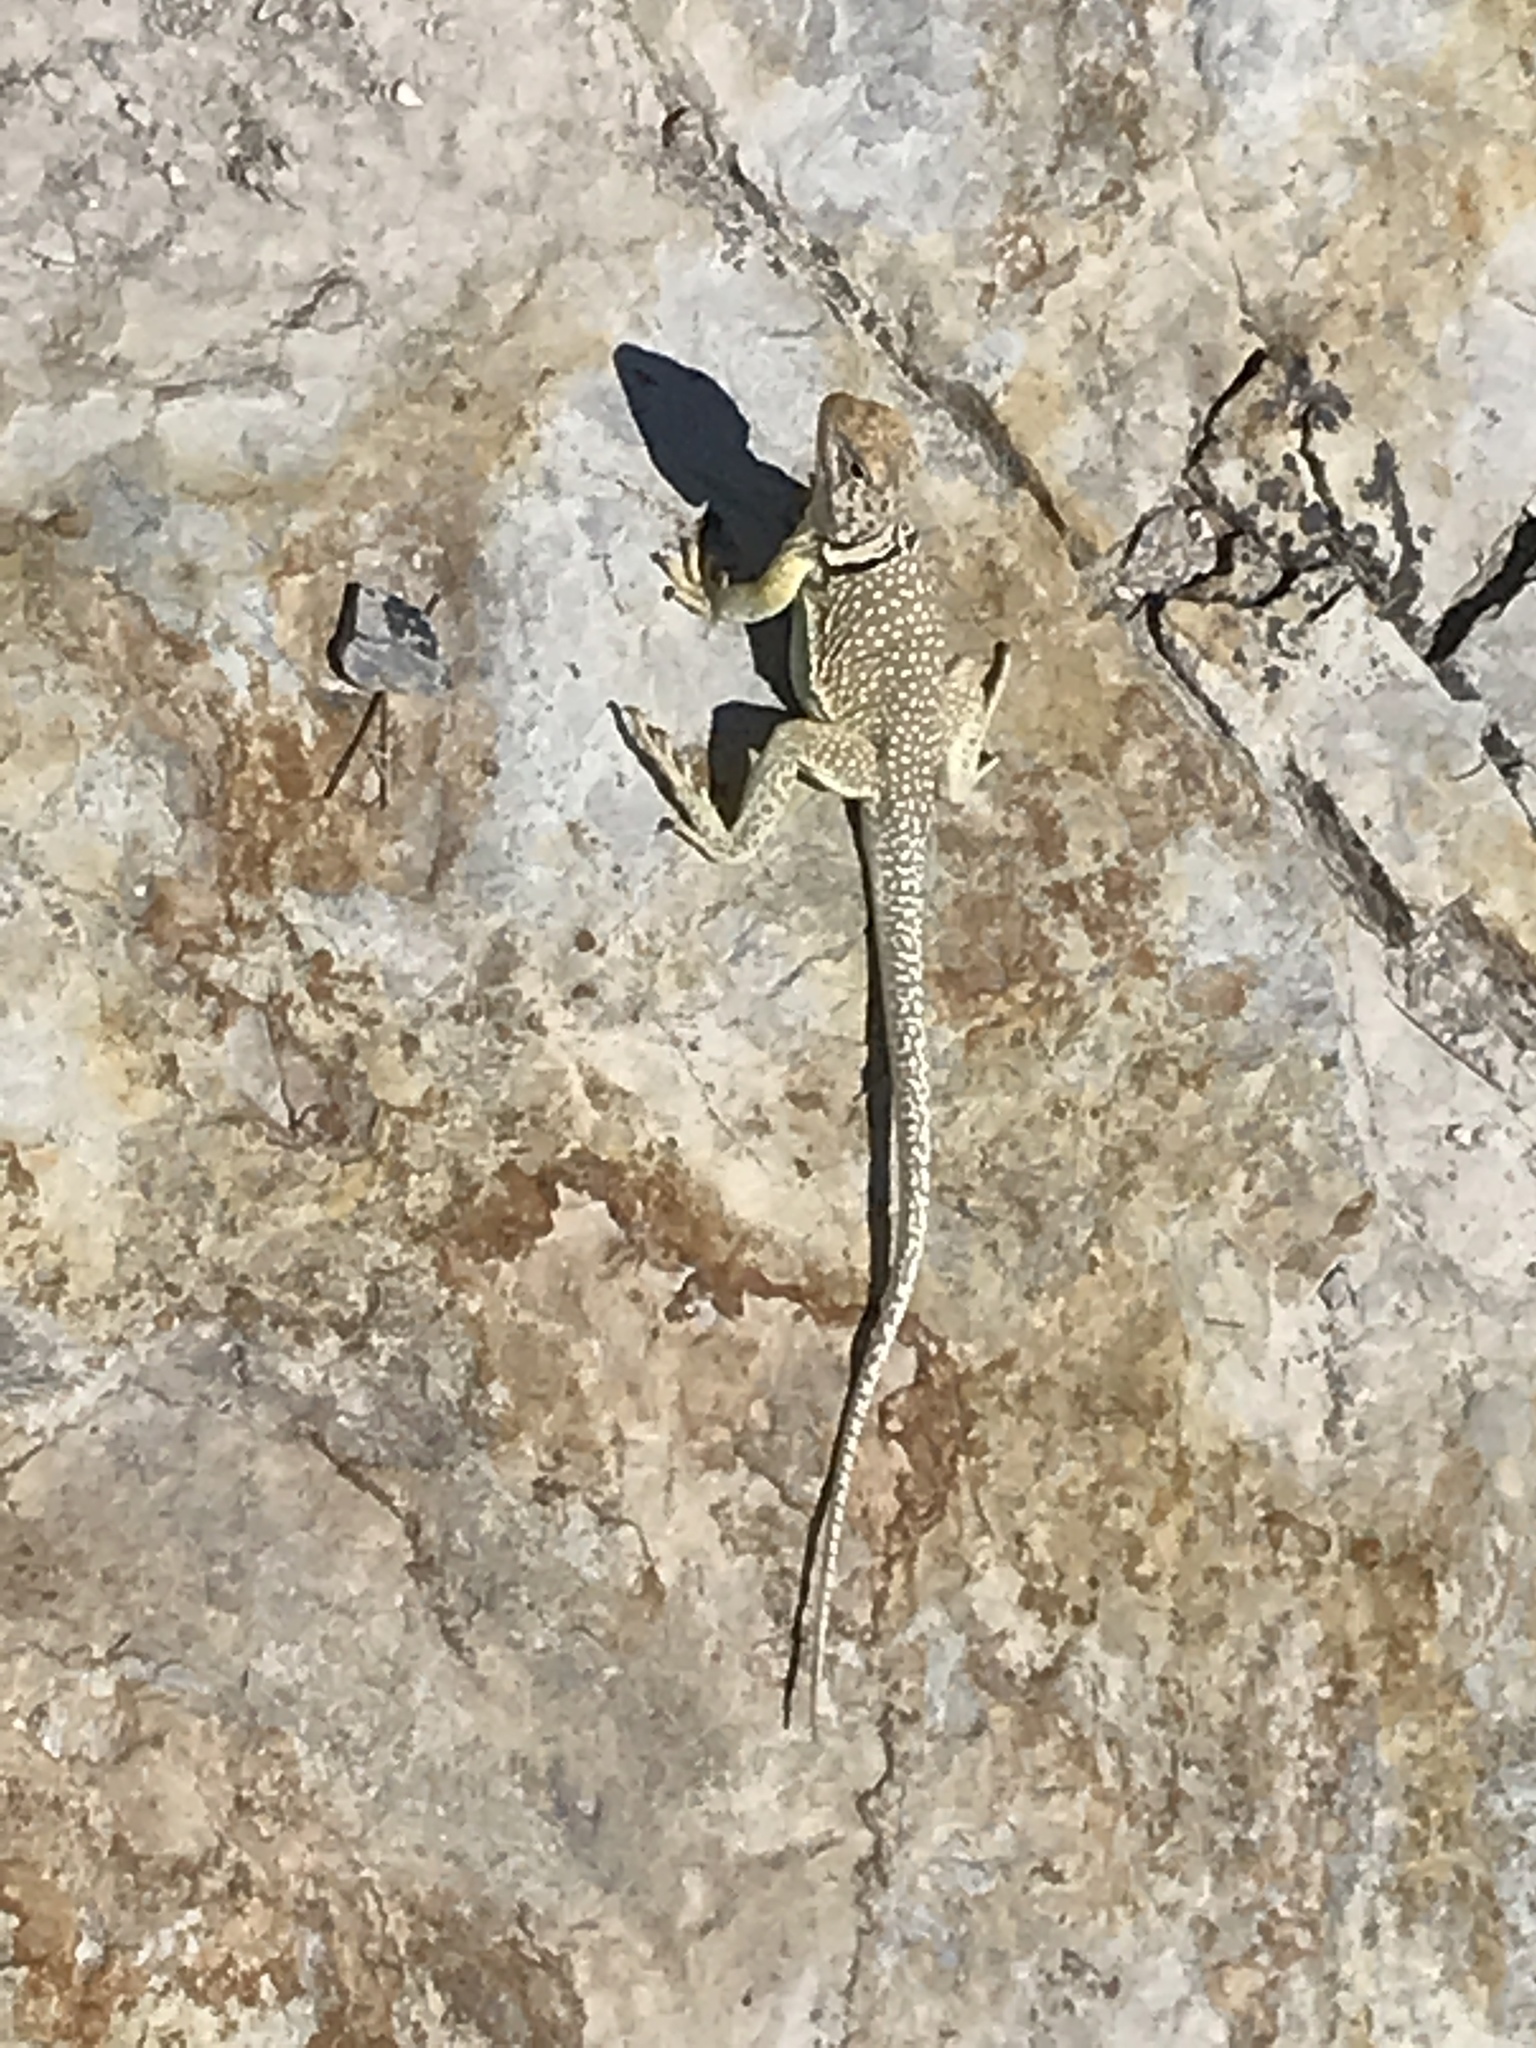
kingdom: Animalia
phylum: Chordata
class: Squamata
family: Crotaphytidae
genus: Crotaphytus
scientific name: Crotaphytus collaris
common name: Collared lizard
